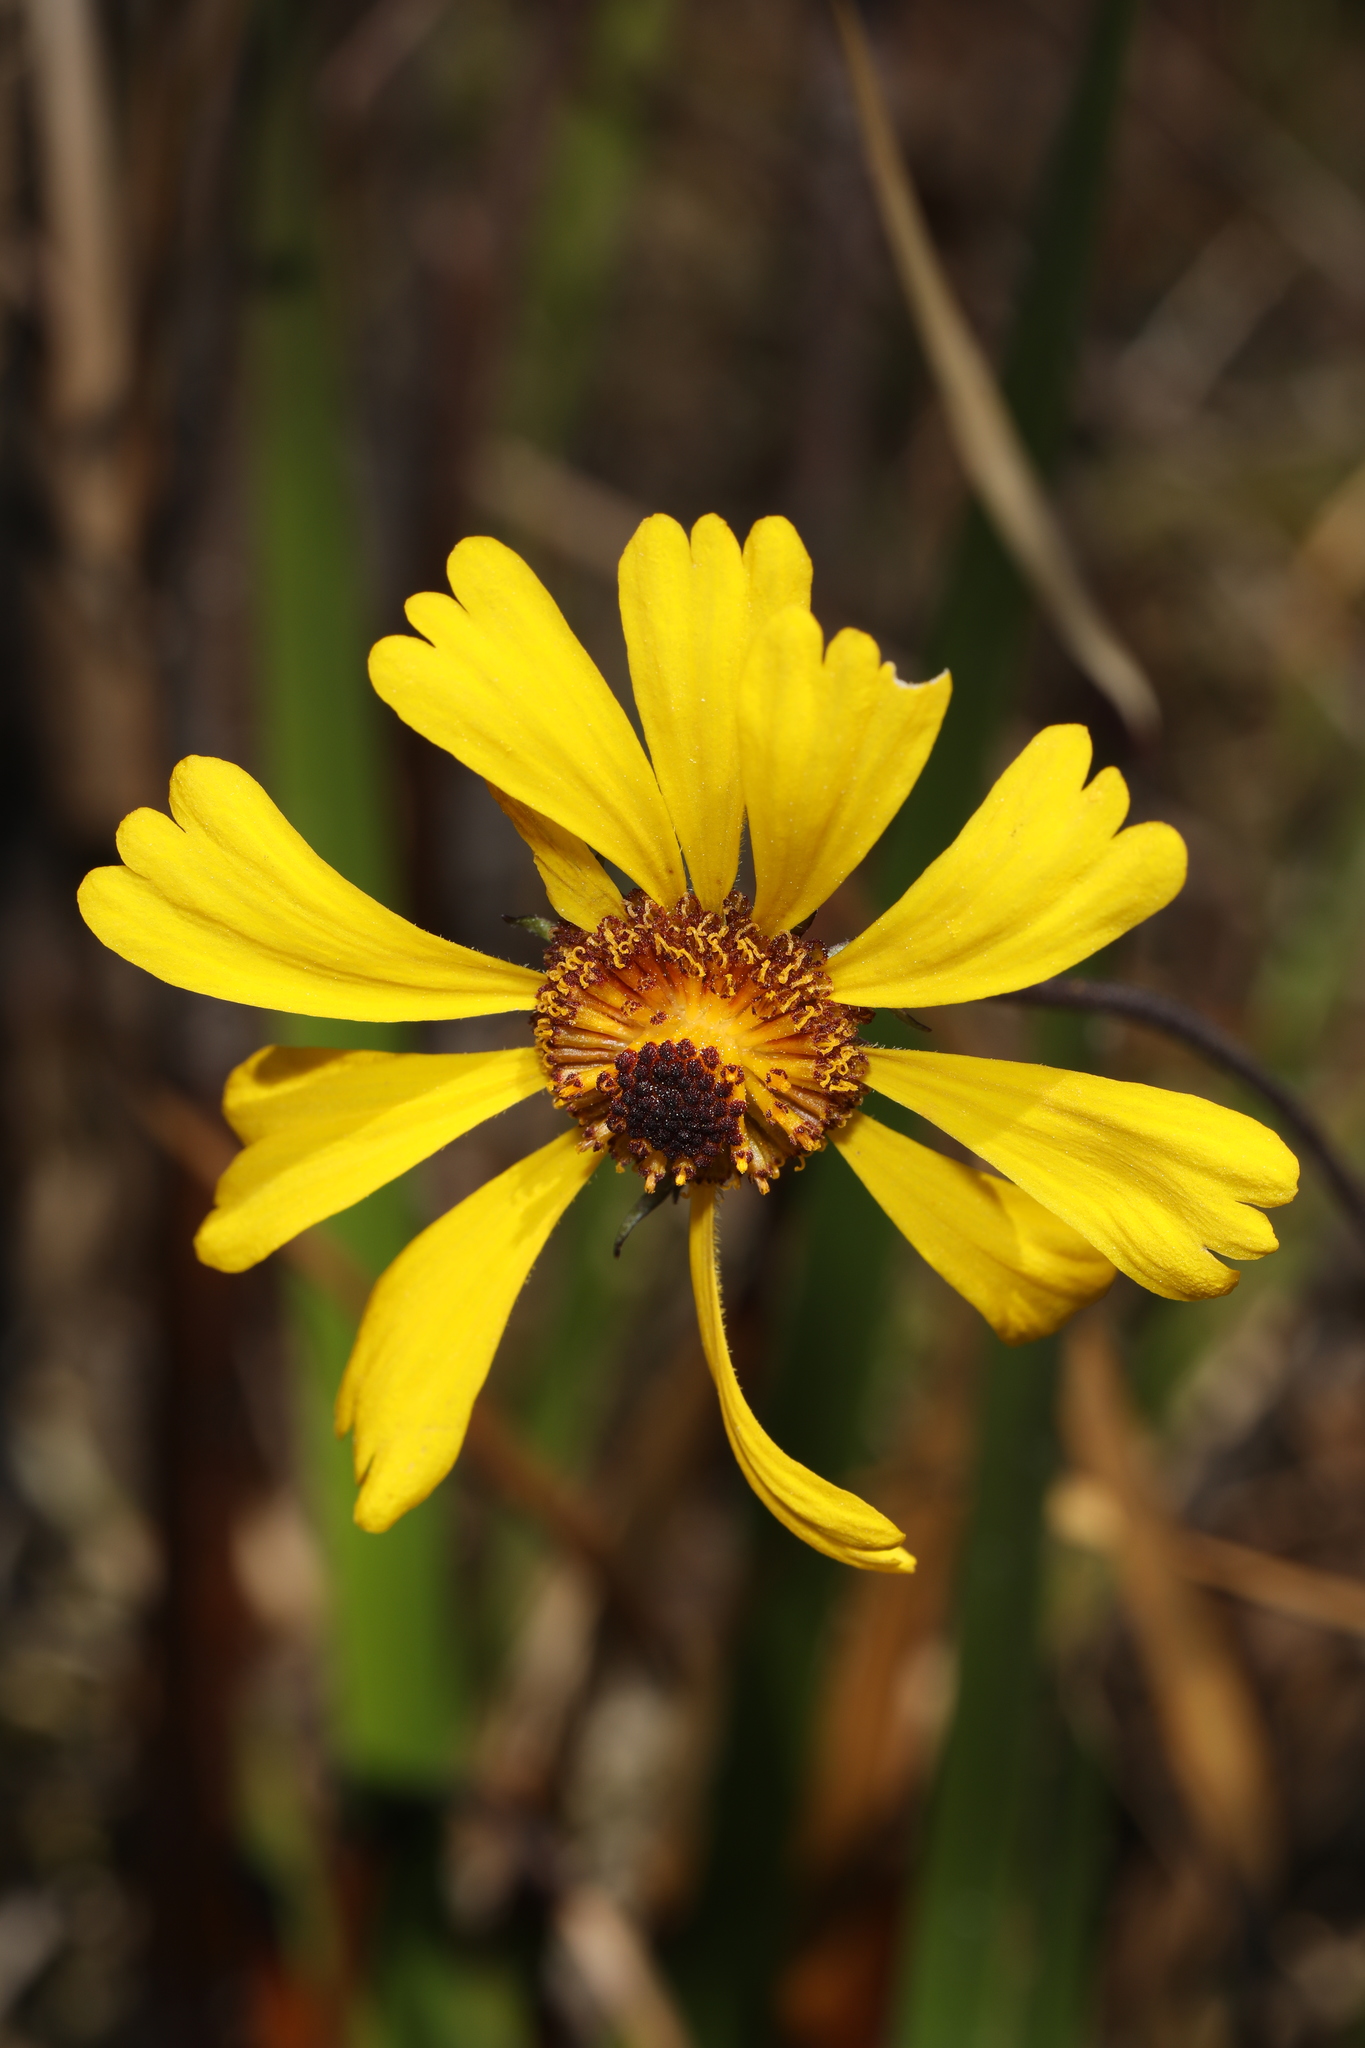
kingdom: Plantae
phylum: Tracheophyta
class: Magnoliopsida
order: Asterales
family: Asteraceae
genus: Helenium
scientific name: Helenium brevifolium
